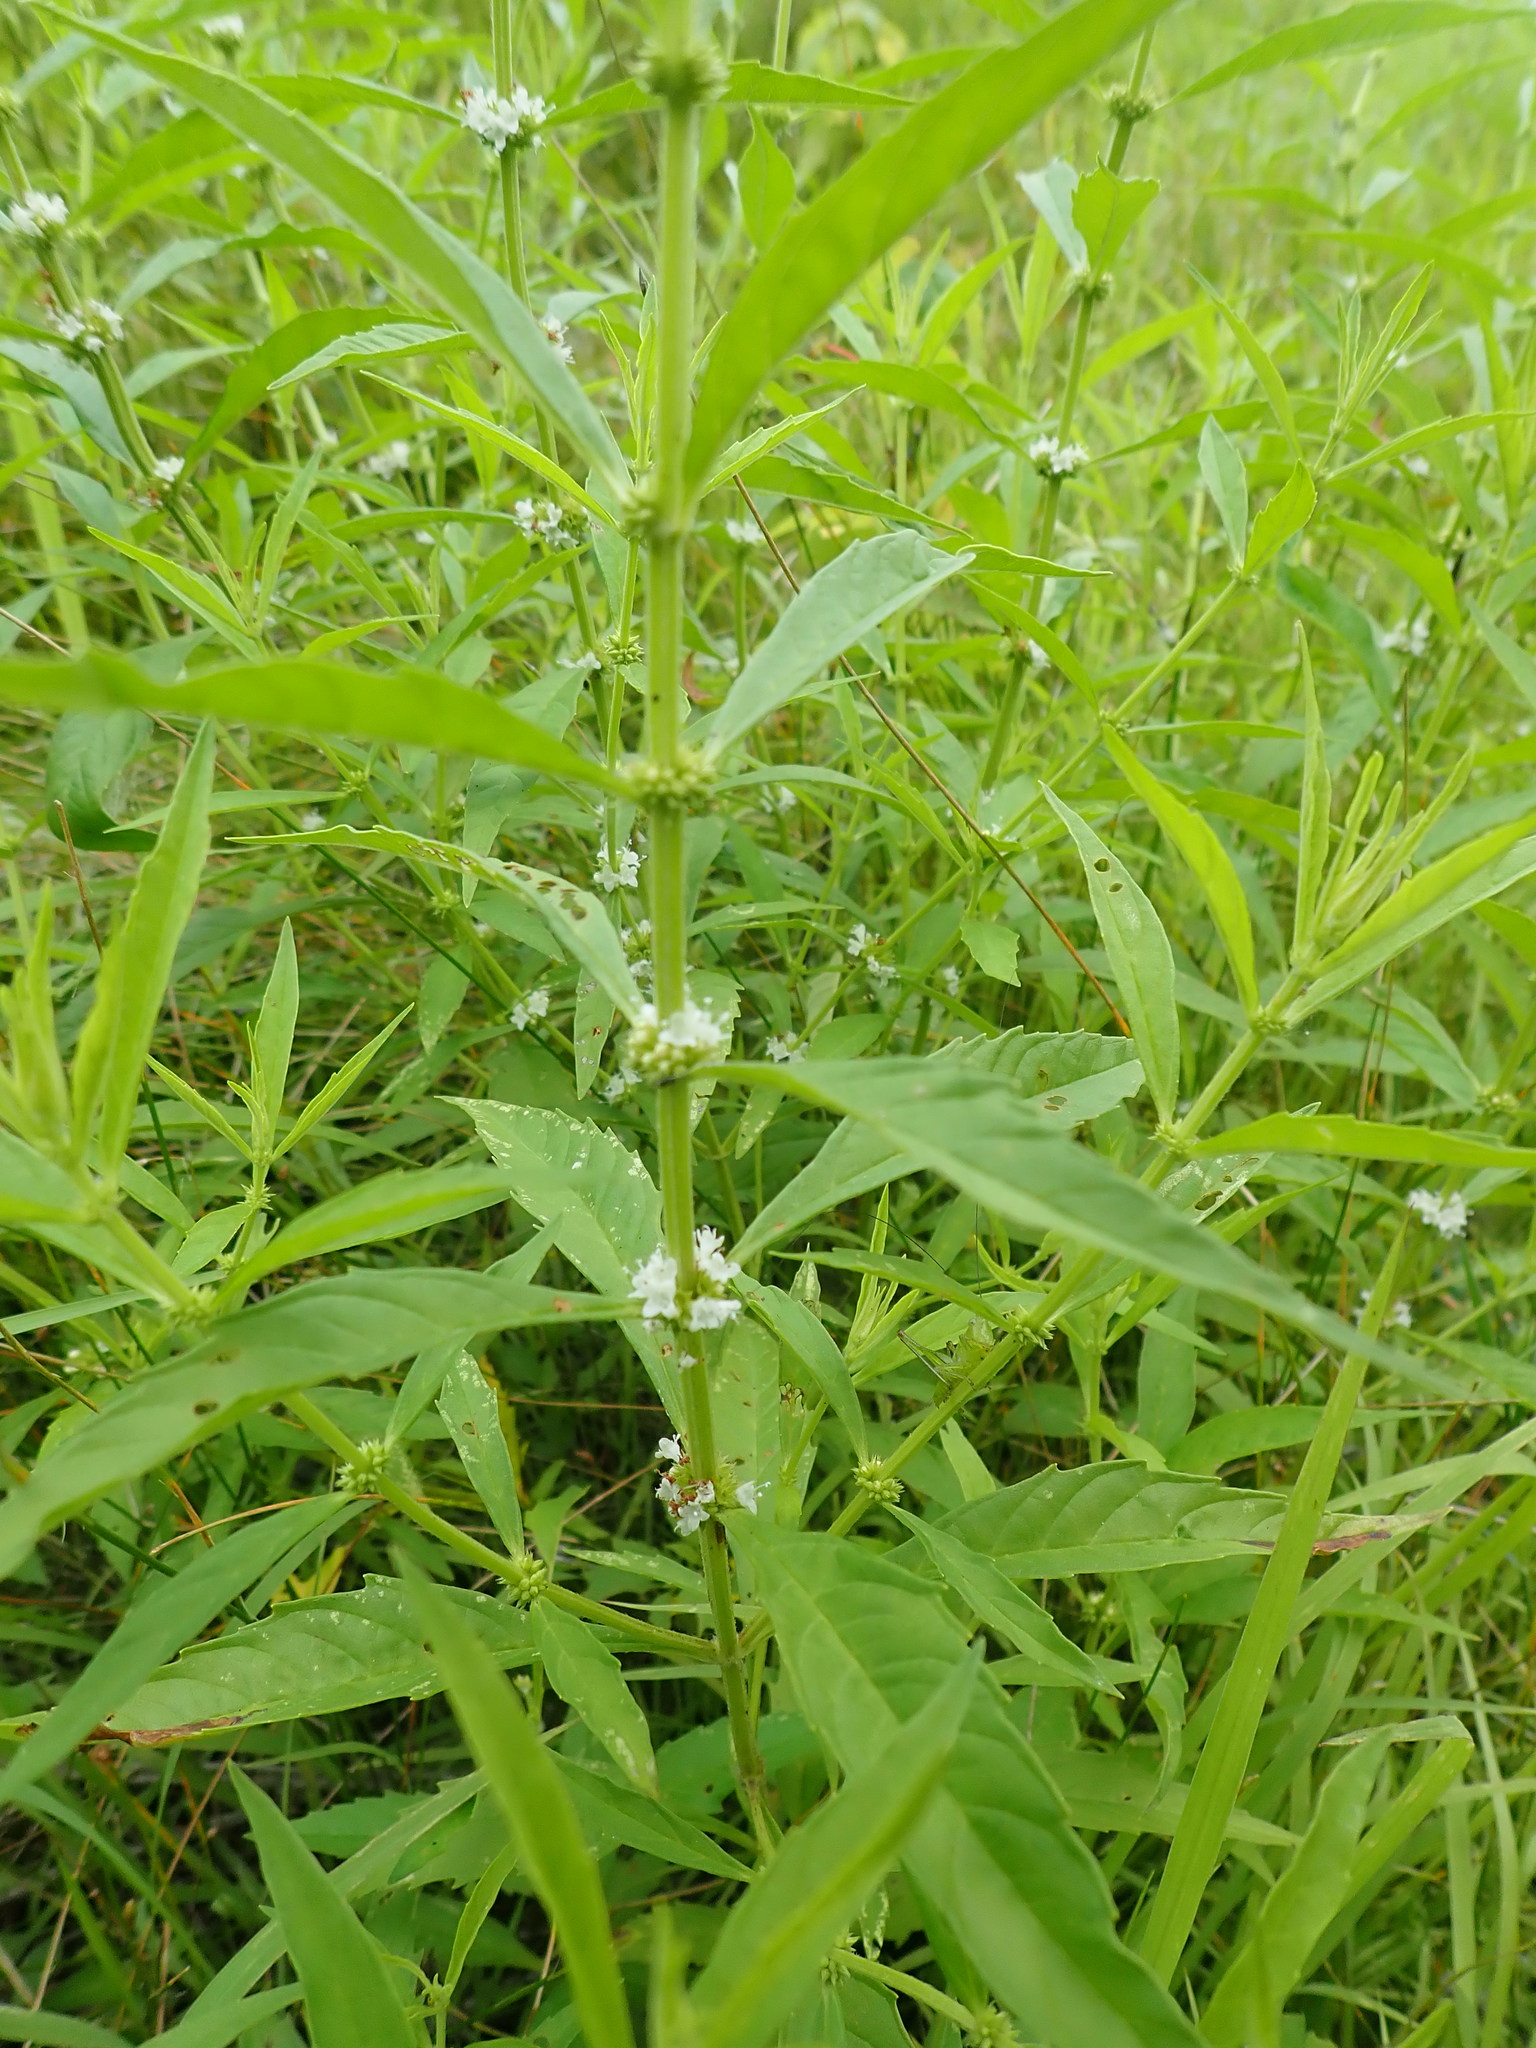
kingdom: Plantae
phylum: Tracheophyta
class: Magnoliopsida
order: Lamiales
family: Lamiaceae
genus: Lycopus
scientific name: Lycopus americanus
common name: American bugleweed
